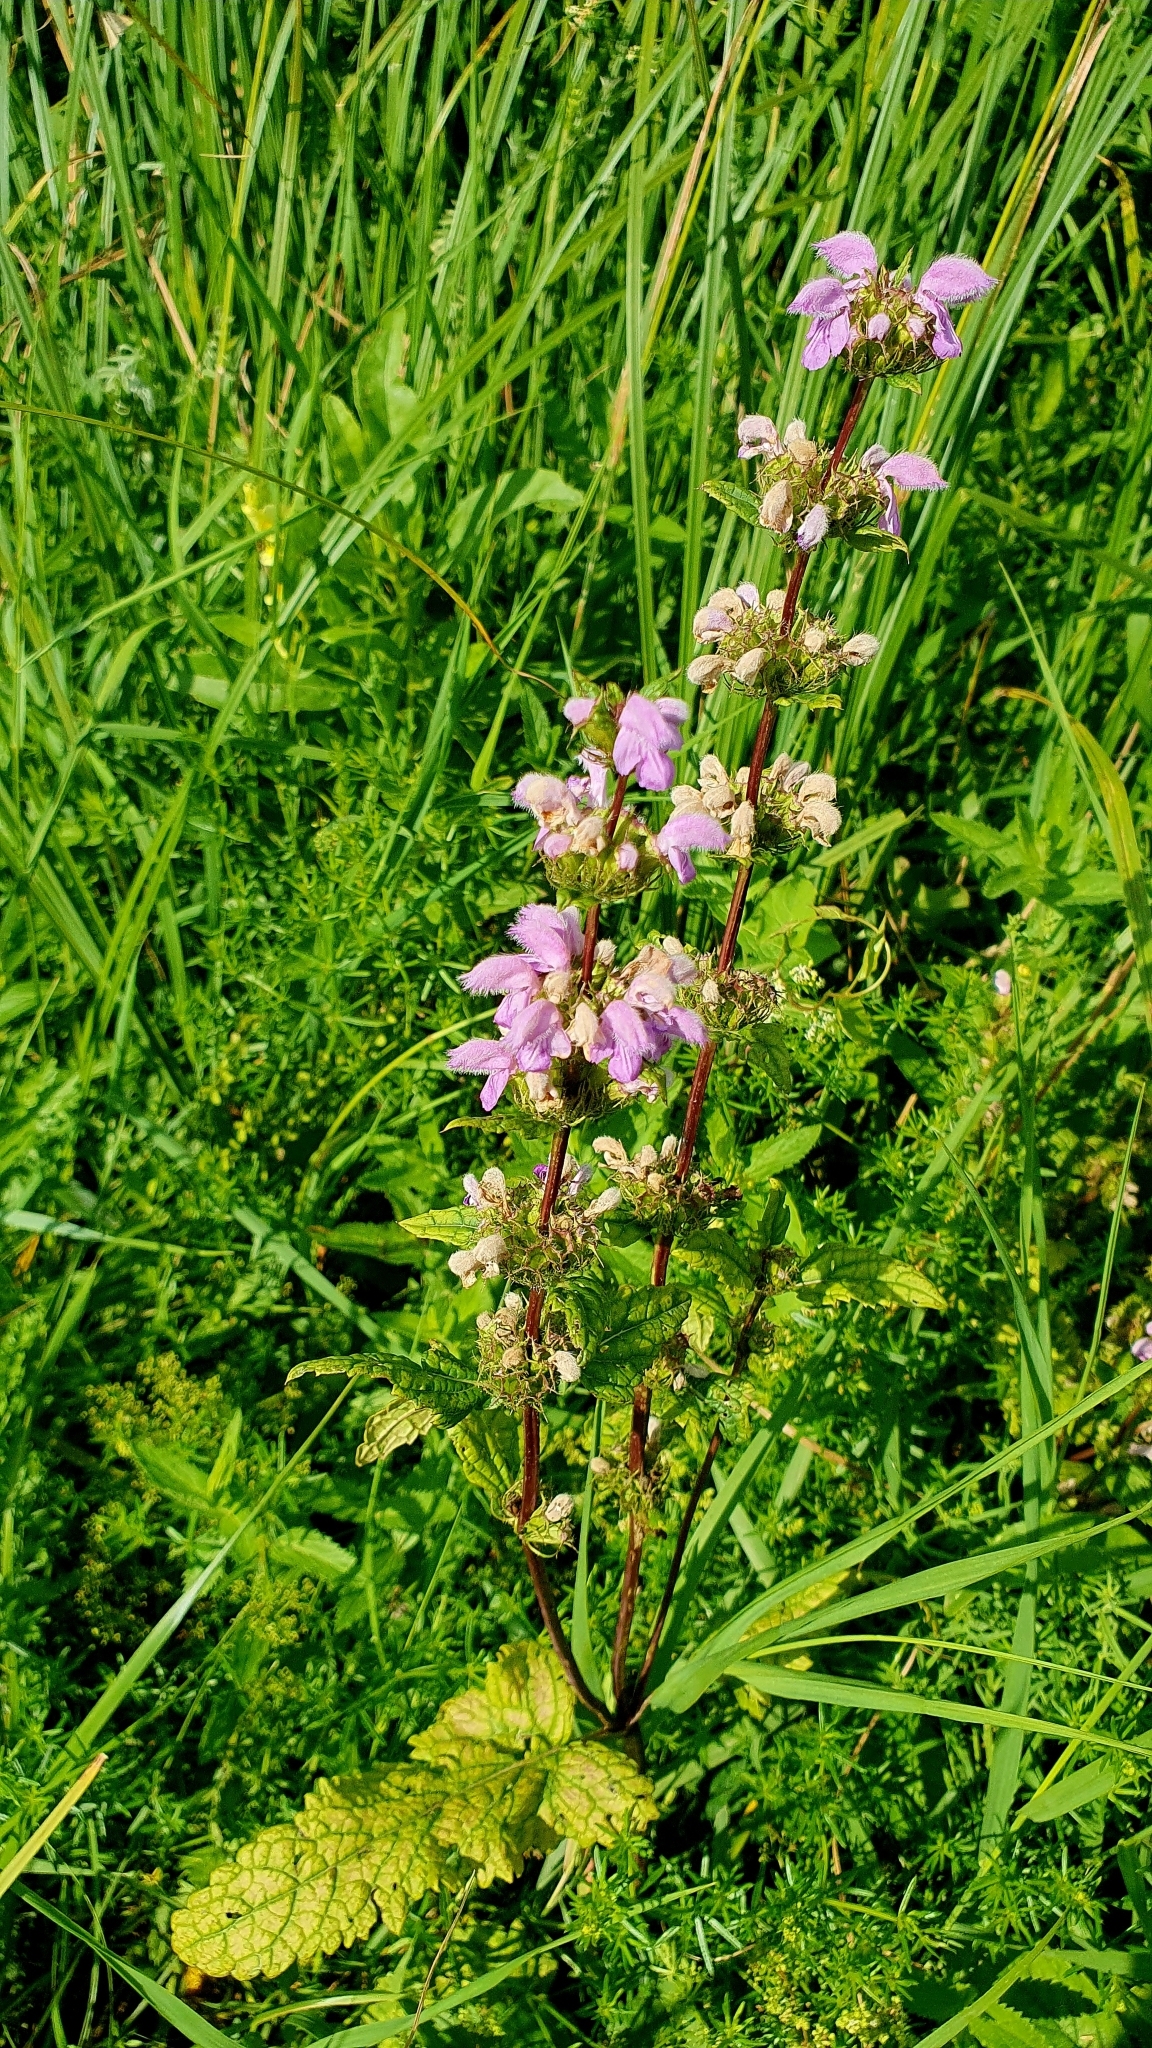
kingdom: Plantae
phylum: Tracheophyta
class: Magnoliopsida
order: Lamiales
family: Lamiaceae
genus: Phlomoides
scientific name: Phlomoides tuberosa
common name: Tuberous jerusalem sage
